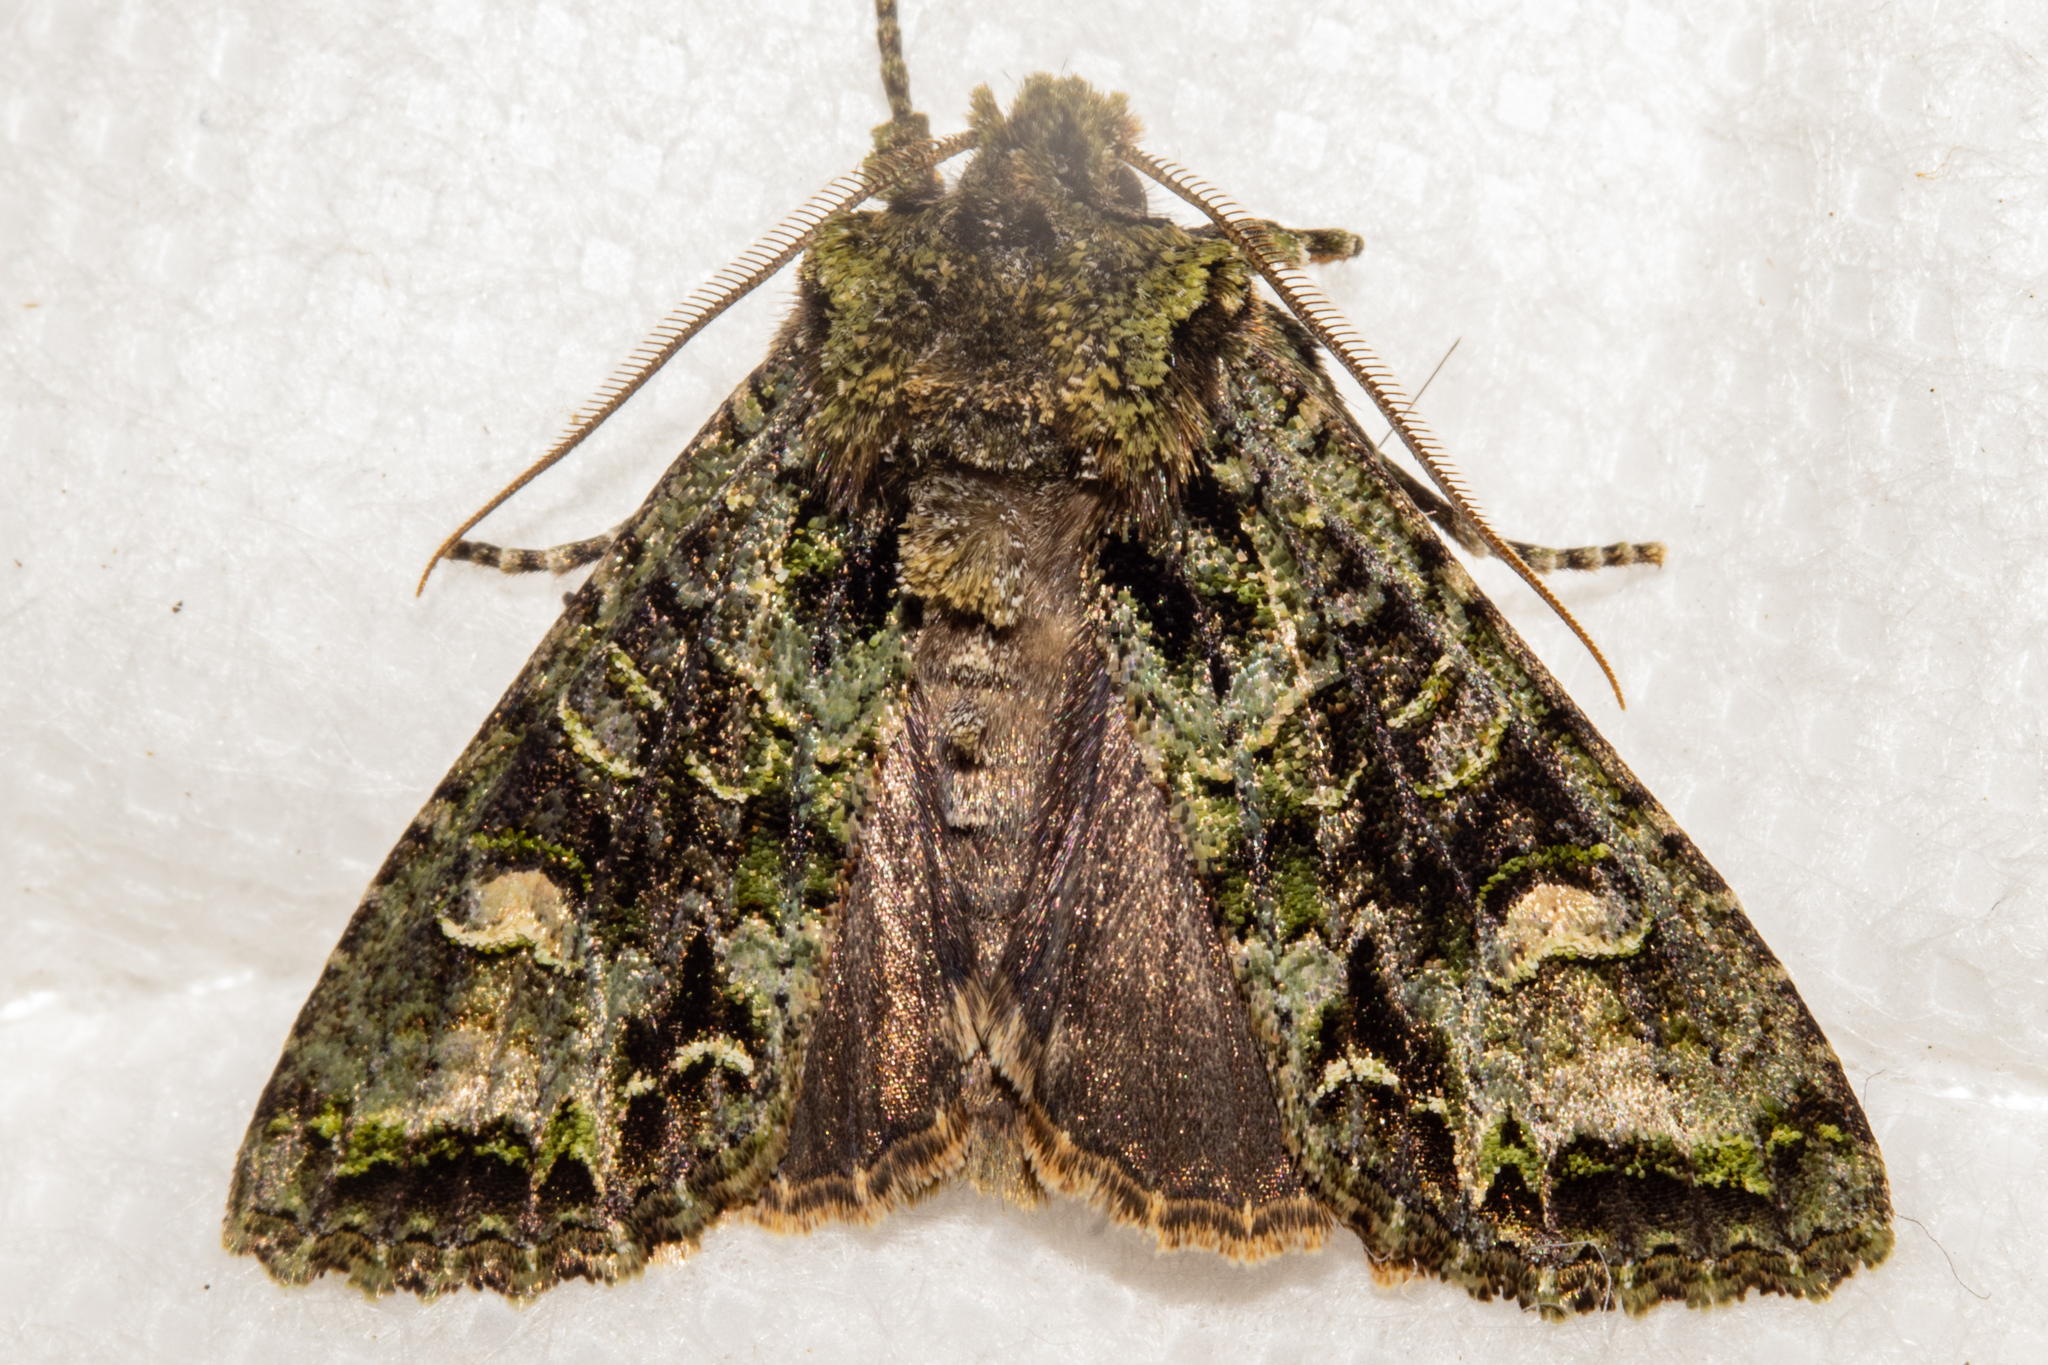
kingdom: Animalia
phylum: Arthropoda
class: Insecta
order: Lepidoptera
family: Noctuidae
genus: Ichneutica
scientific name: Ichneutica
